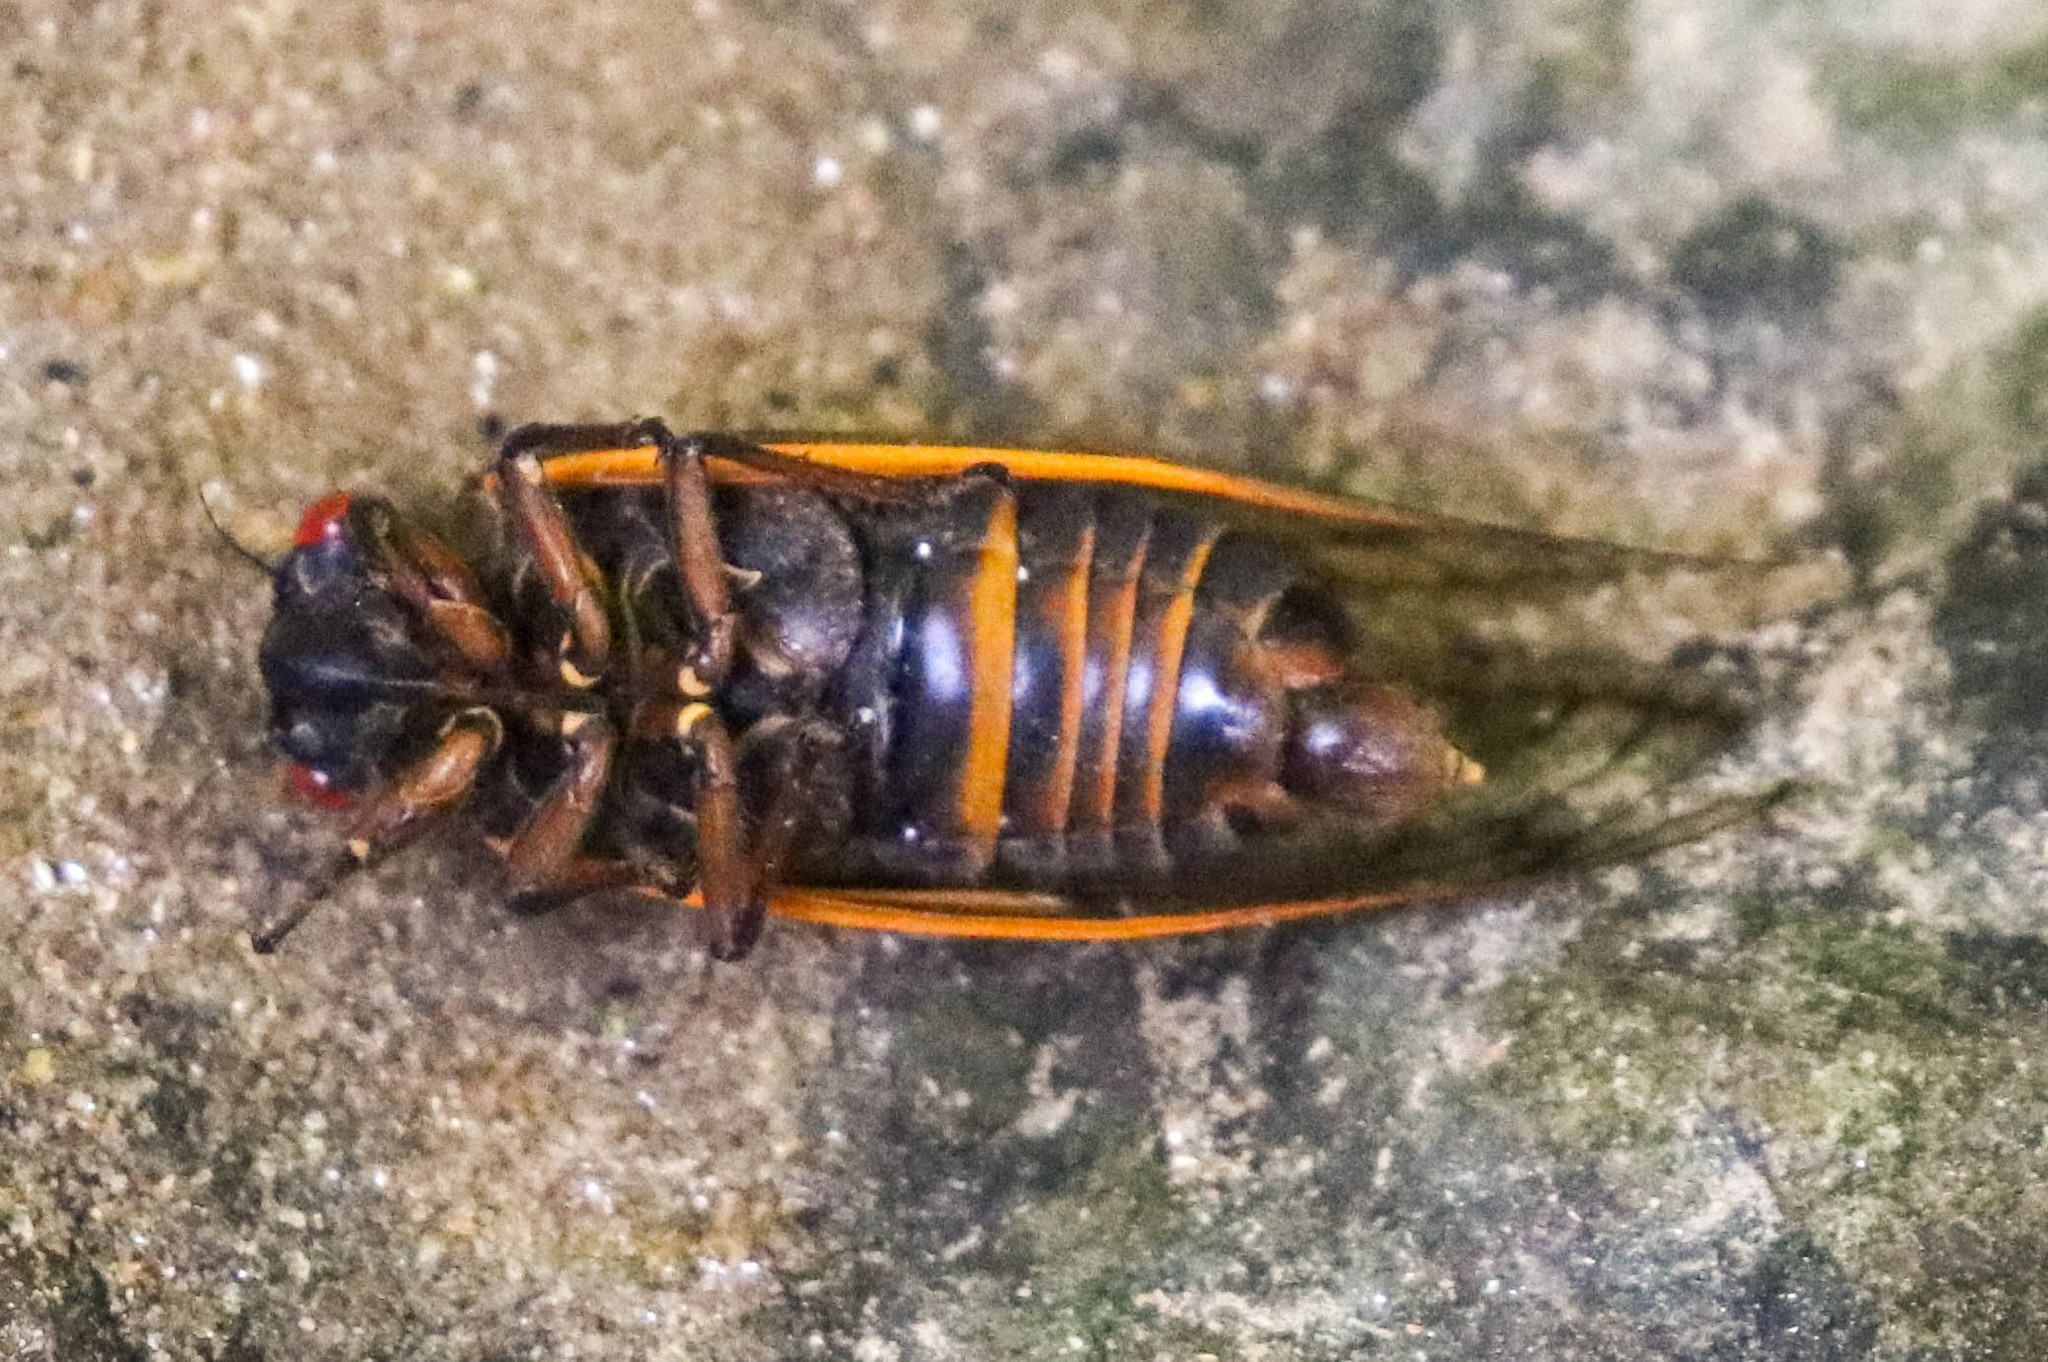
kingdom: Animalia
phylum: Arthropoda
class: Insecta
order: Hemiptera
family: Cicadidae
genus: Magicicada
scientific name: Magicicada septendecim
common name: Periodical cicada
